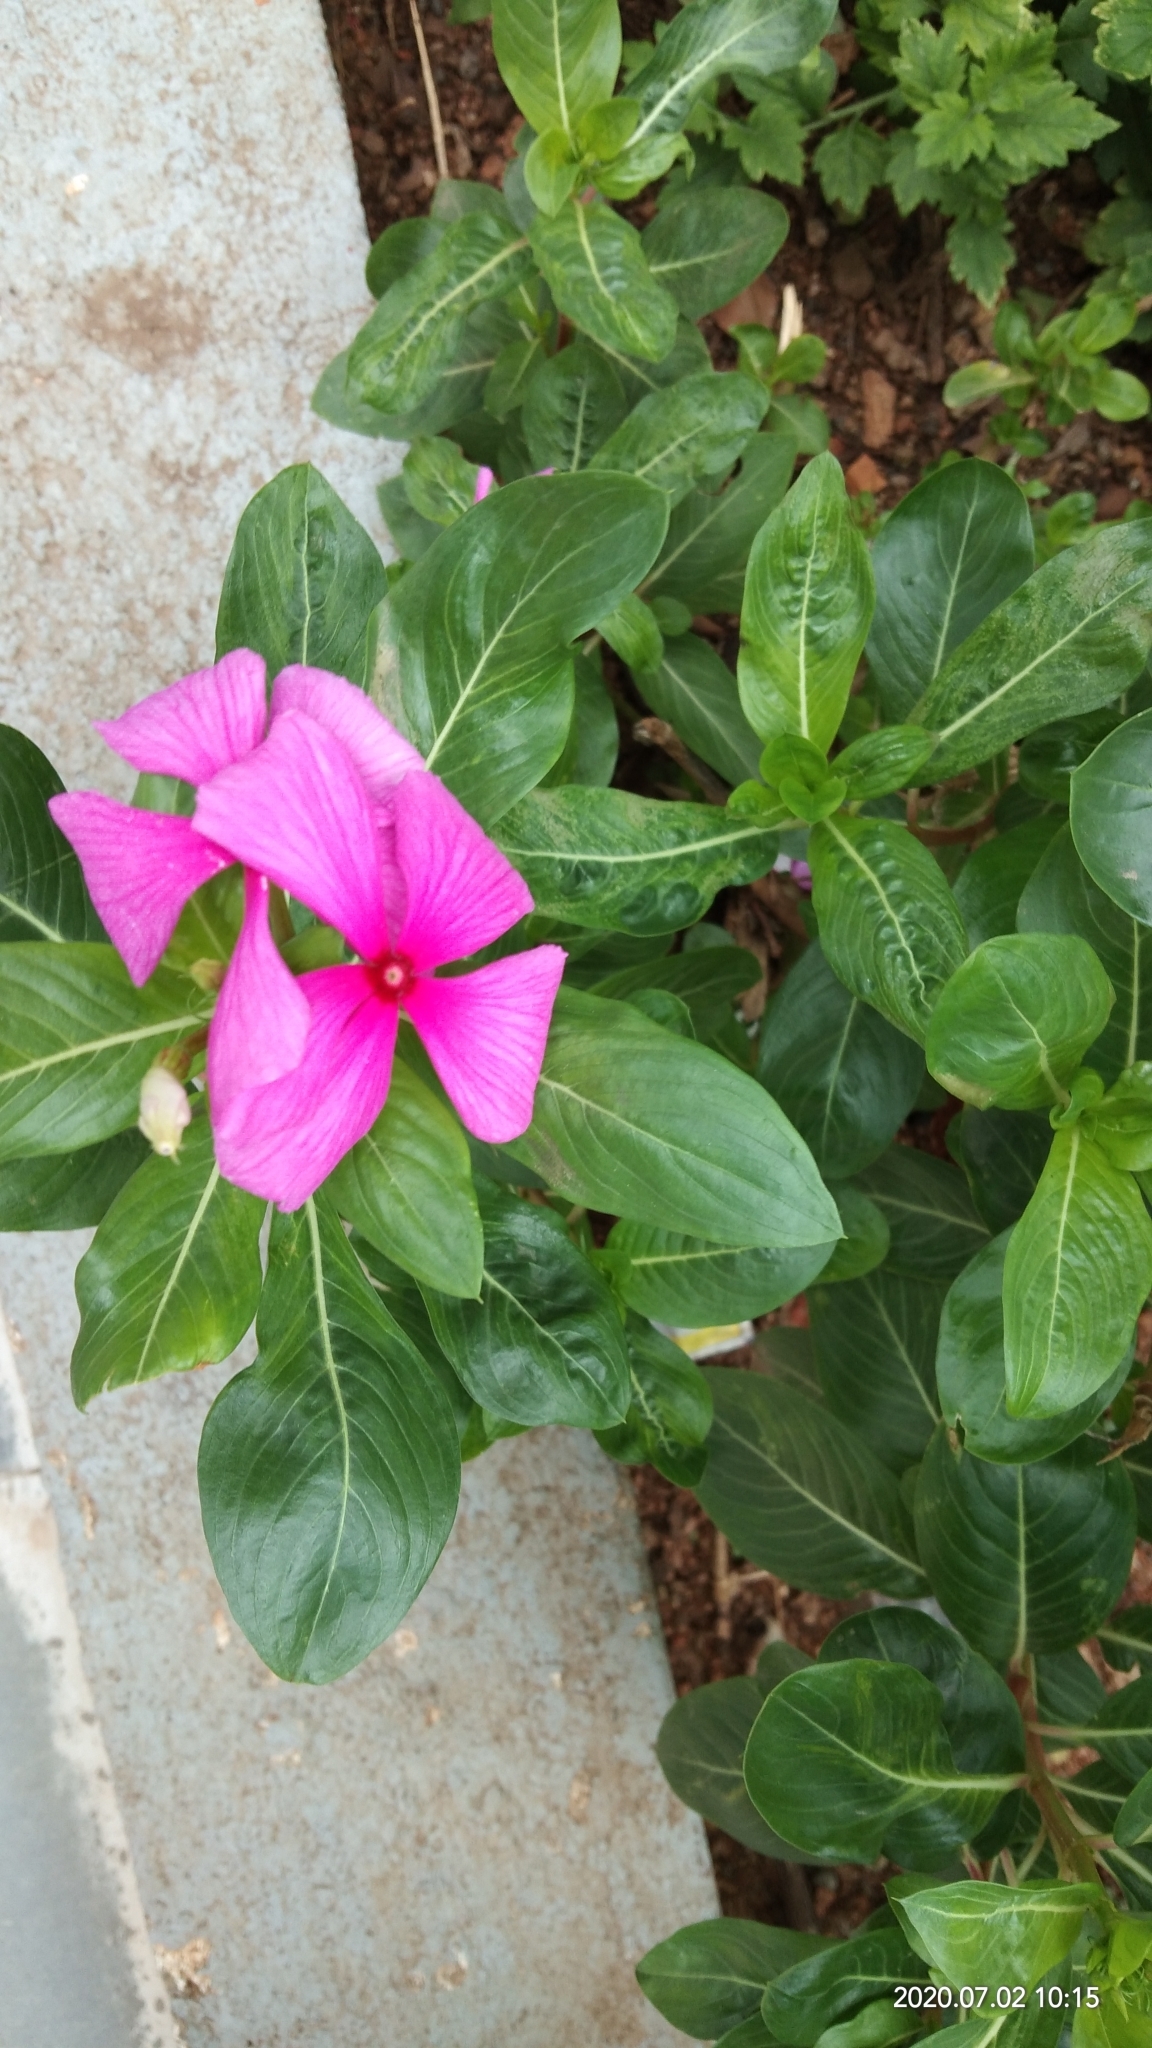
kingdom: Plantae
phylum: Tracheophyta
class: Magnoliopsida
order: Gentianales
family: Apocynaceae
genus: Catharanthus
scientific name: Catharanthus roseus
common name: Madagascar periwinkle
